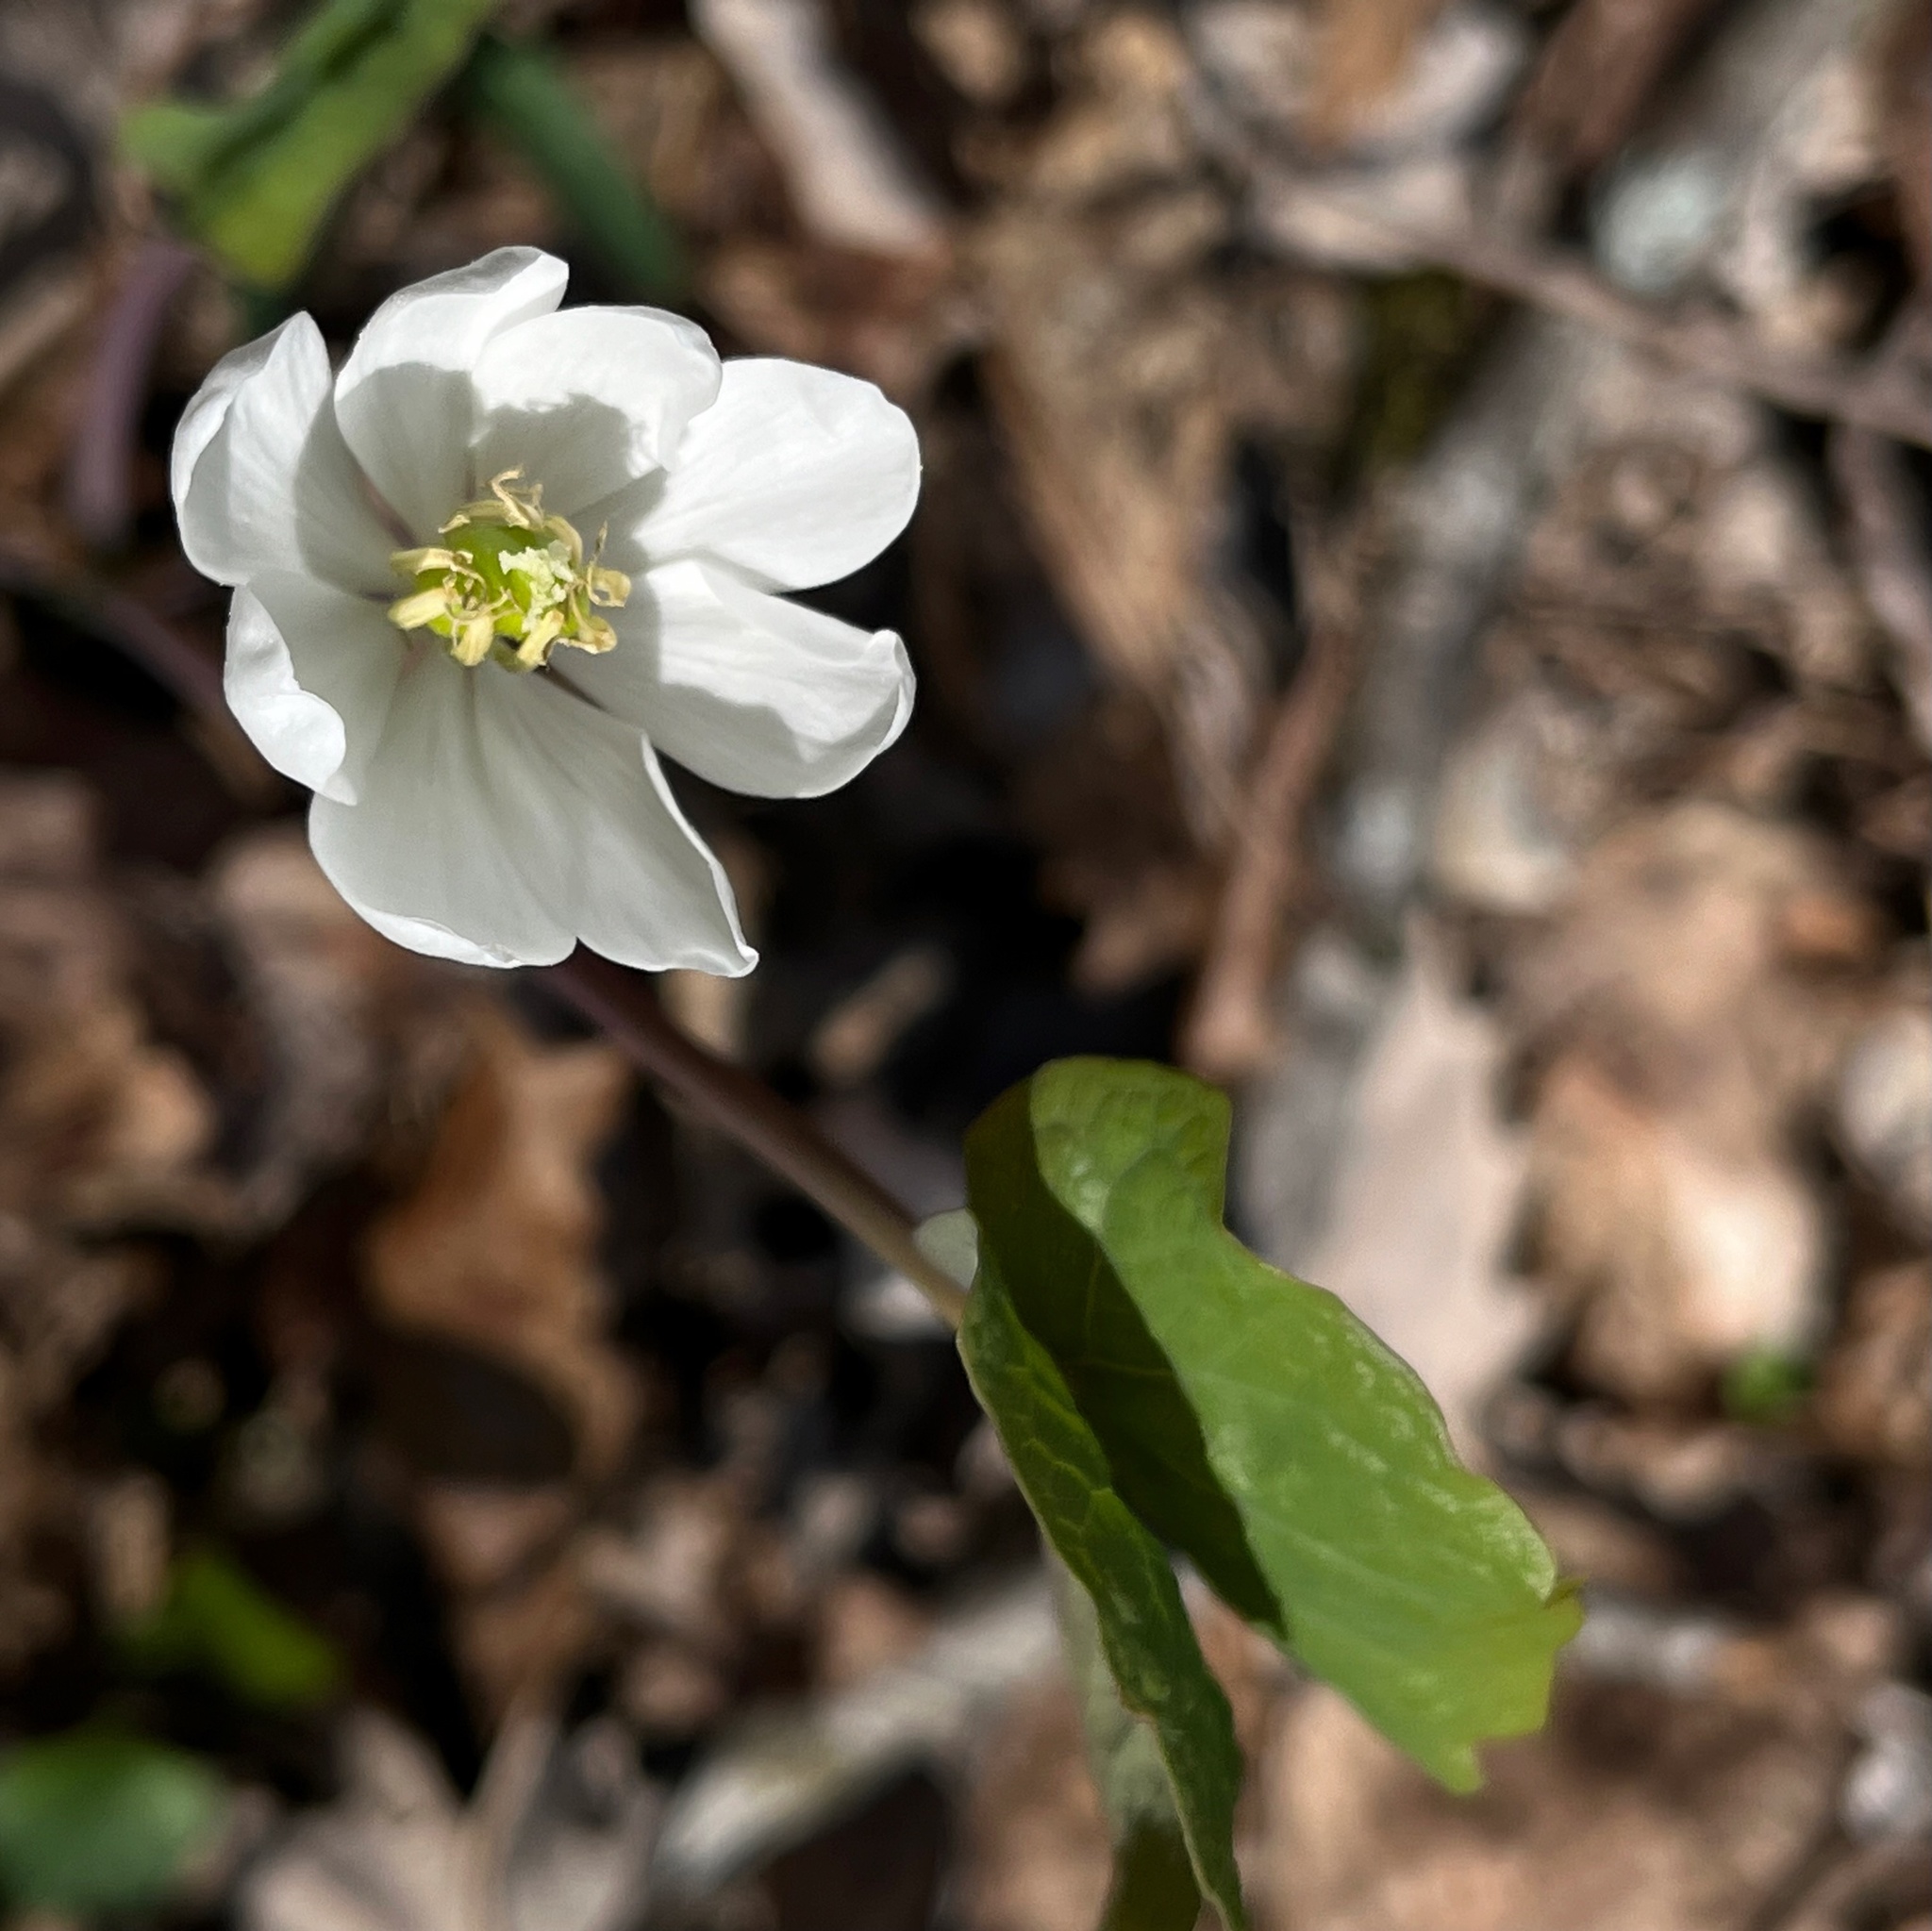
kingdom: Plantae
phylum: Tracheophyta
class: Magnoliopsida
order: Ranunculales
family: Berberidaceae
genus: Jeffersonia
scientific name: Jeffersonia diphylla
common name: Rheumatism-root
